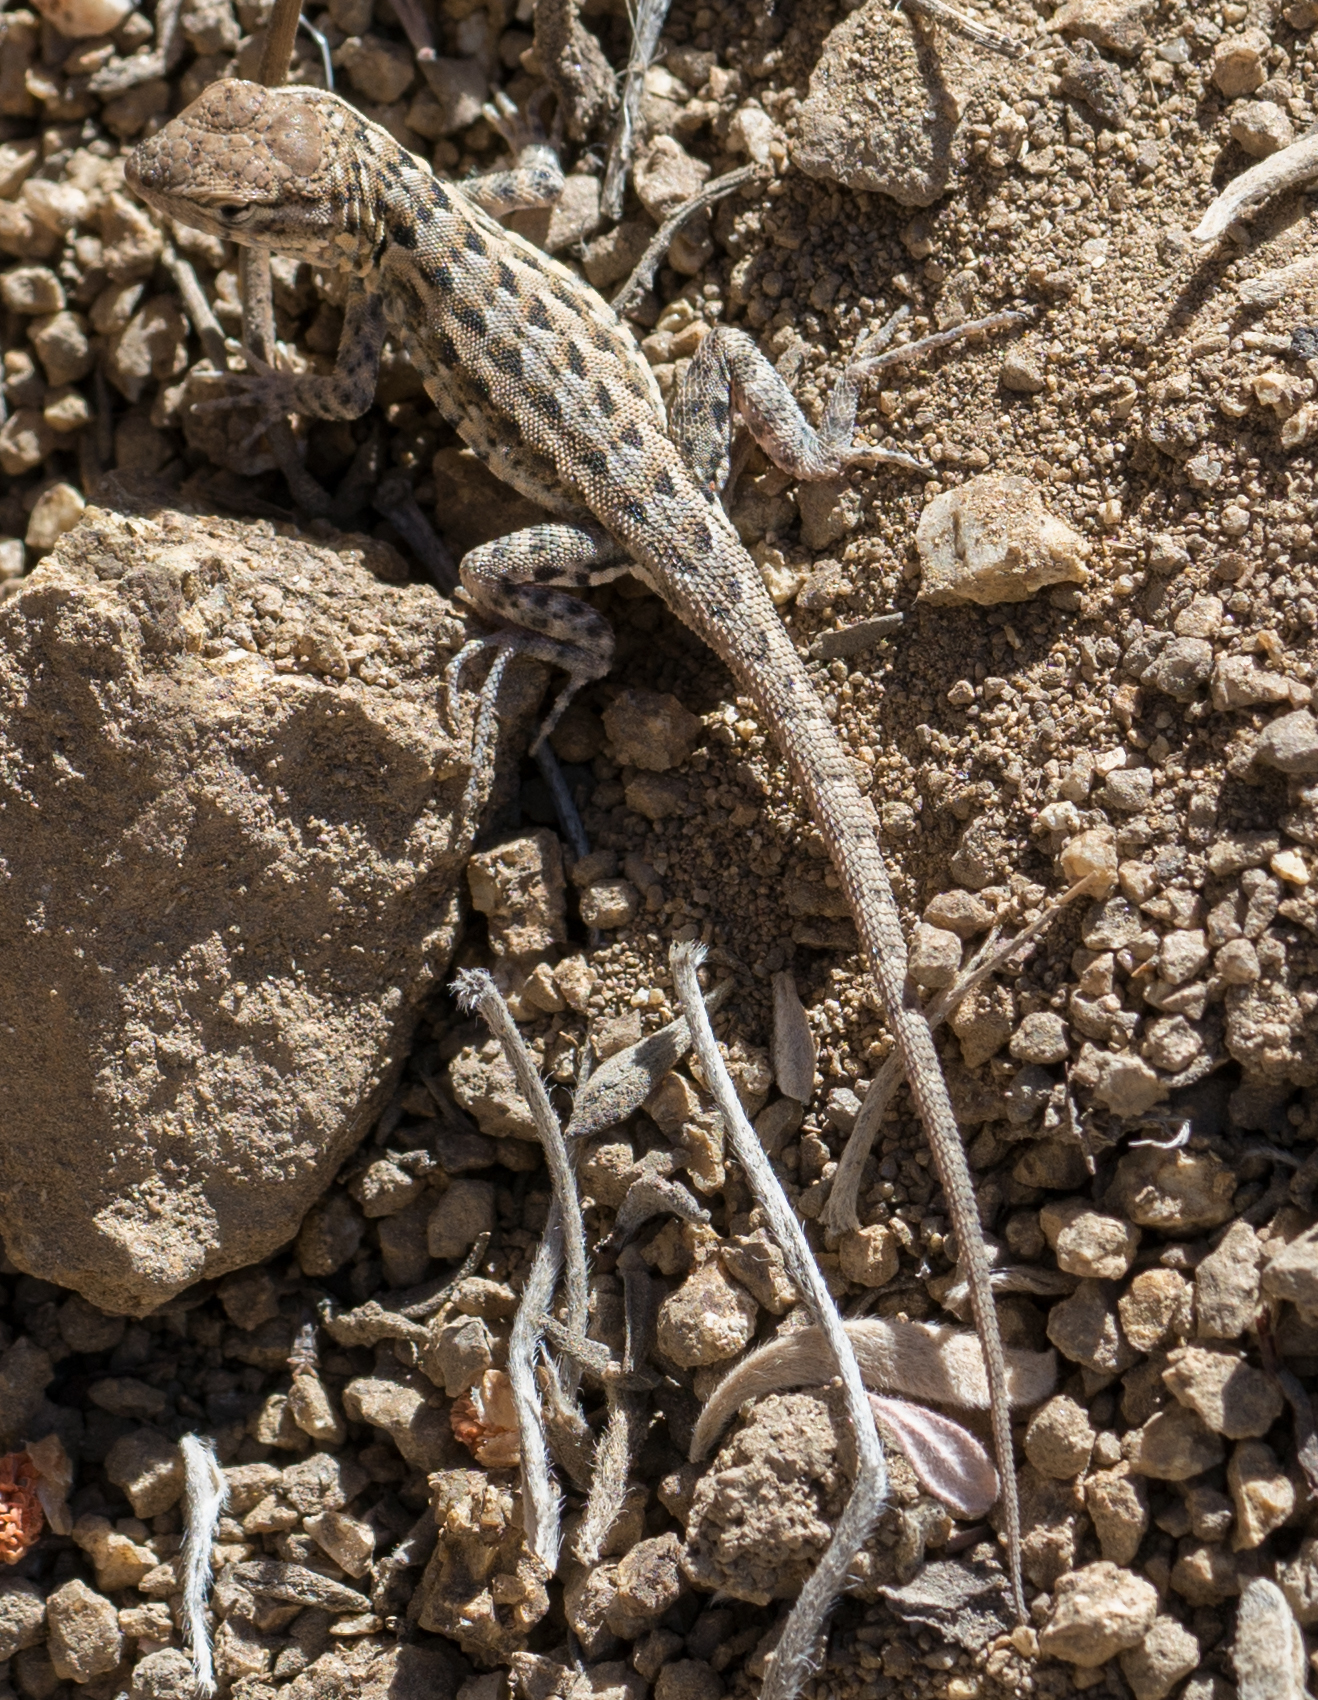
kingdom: Animalia
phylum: Chordata
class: Squamata
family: Phrynosomatidae
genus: Uta
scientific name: Uta stansburiana
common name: Side-blotched lizard
